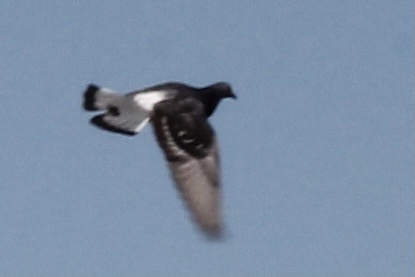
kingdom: Animalia
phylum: Chordata
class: Aves
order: Columbiformes
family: Columbidae
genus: Columba
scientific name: Columba livia
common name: Rock pigeon
